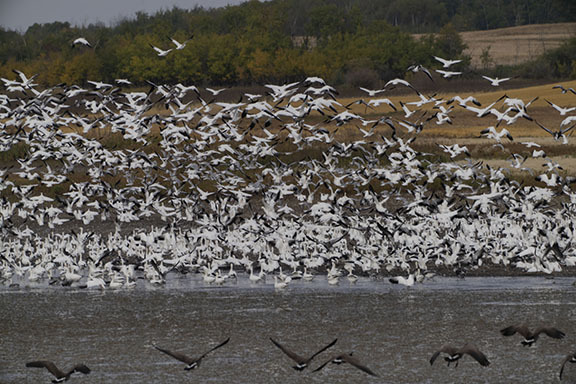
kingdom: Animalia
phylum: Chordata
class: Aves
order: Anseriformes
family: Anatidae
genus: Anser
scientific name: Anser caerulescens
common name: Snow goose
